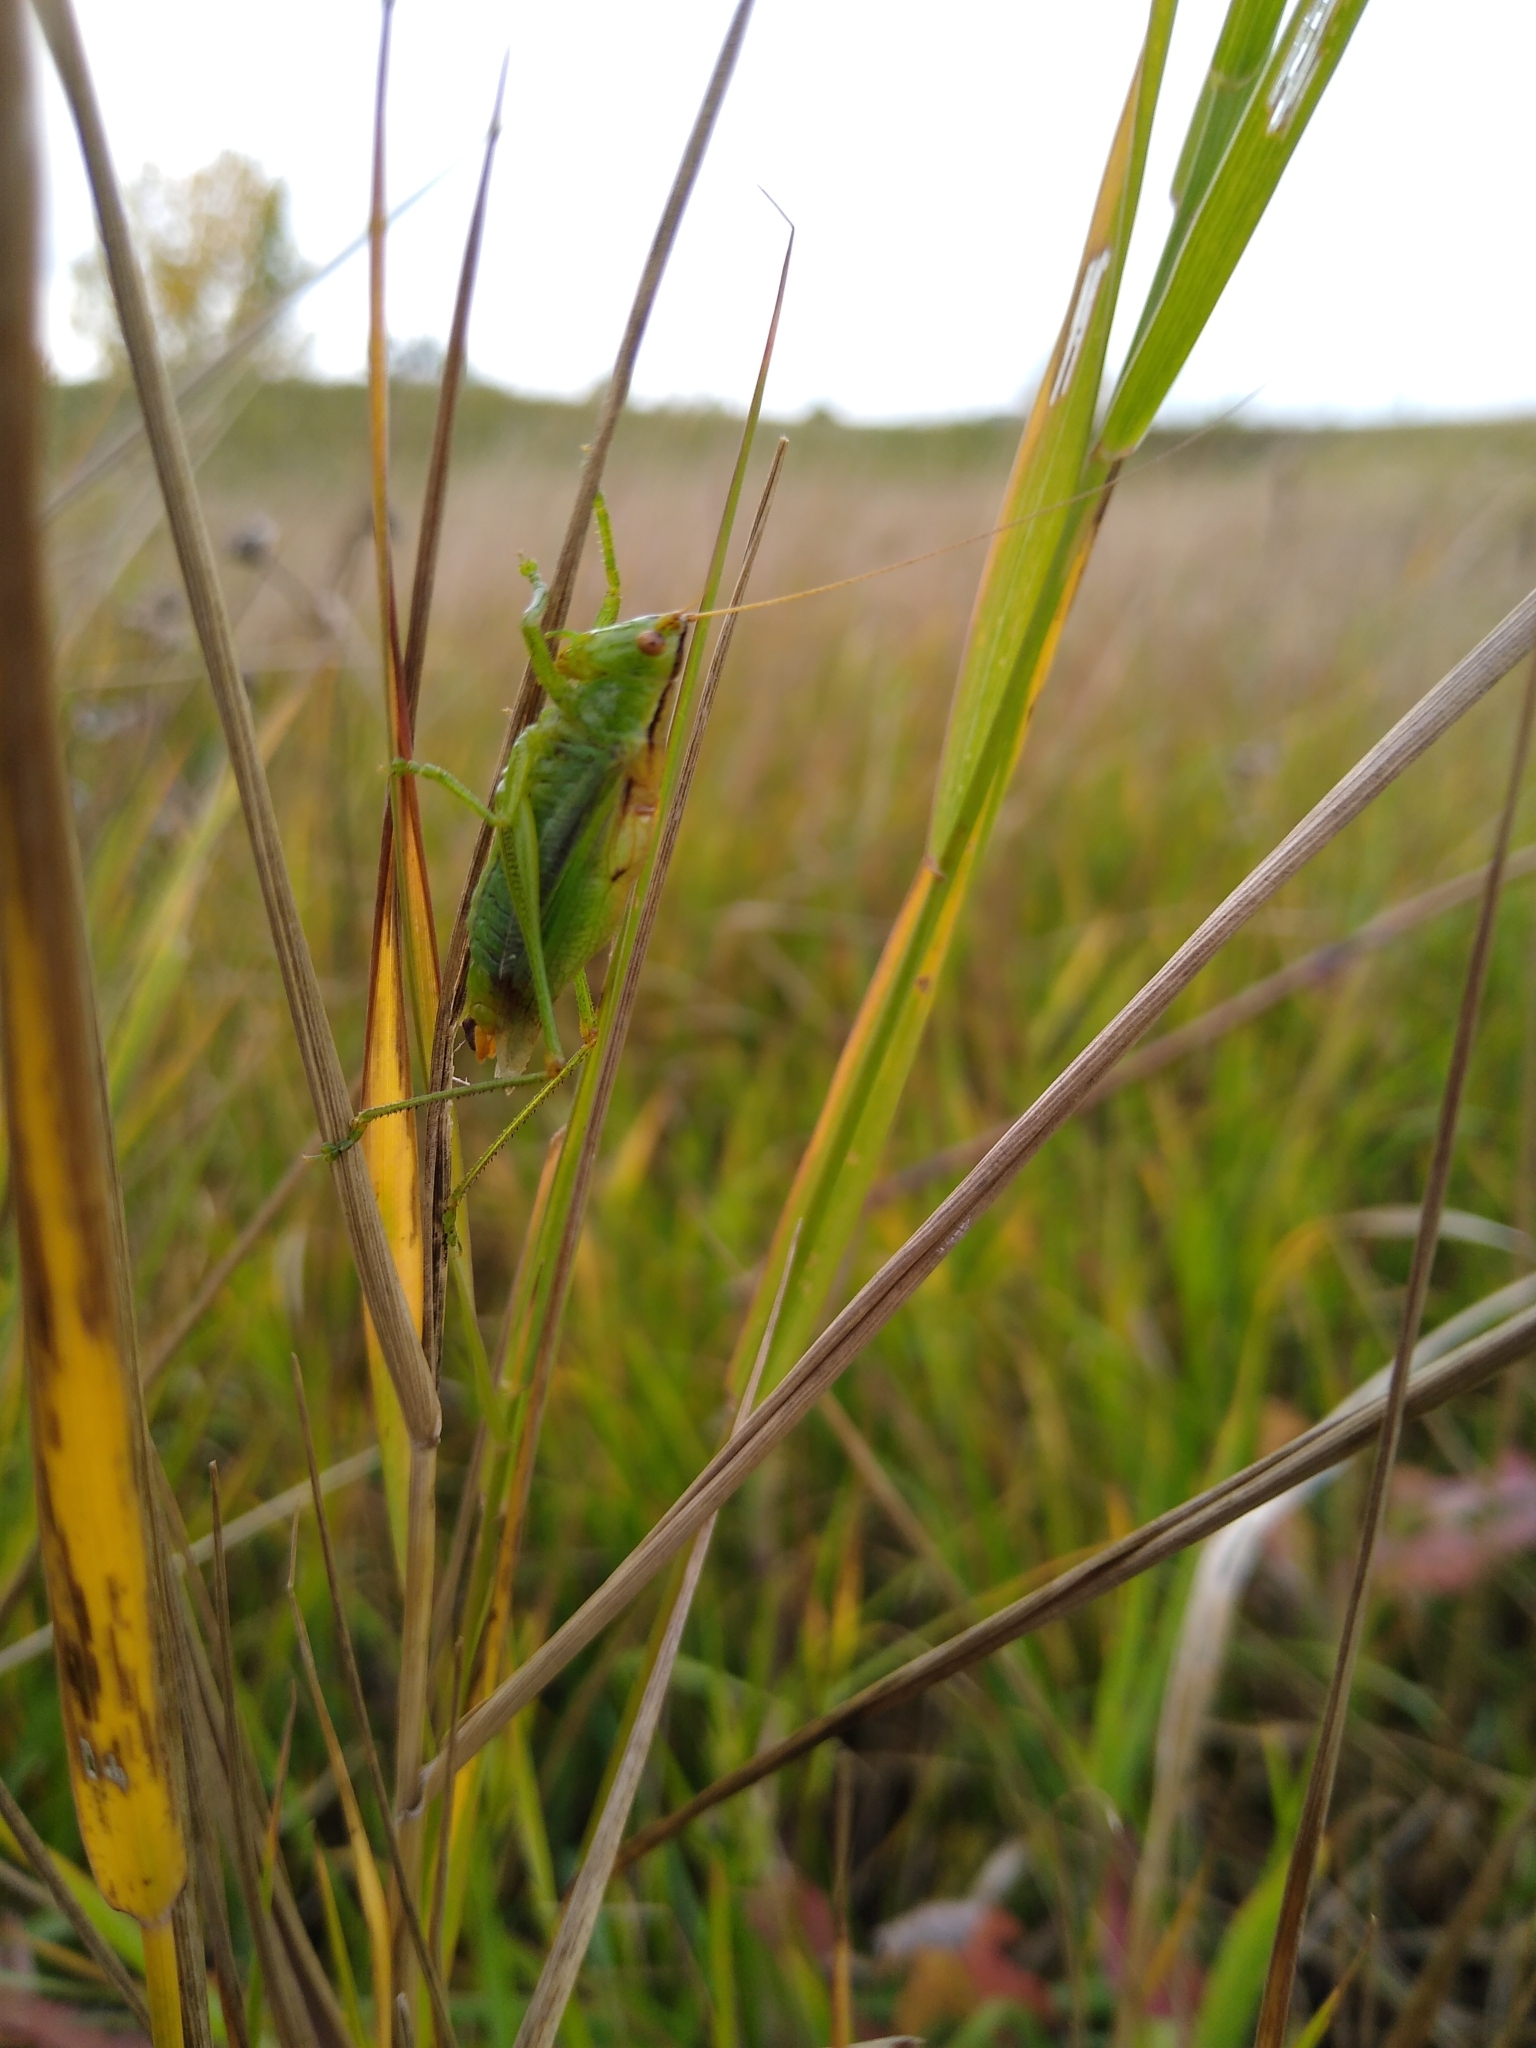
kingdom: Animalia
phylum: Arthropoda
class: Insecta
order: Orthoptera
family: Tettigoniidae
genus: Orchelimum
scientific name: Orchelimum gladiator
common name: Gladiator meadow katydid
